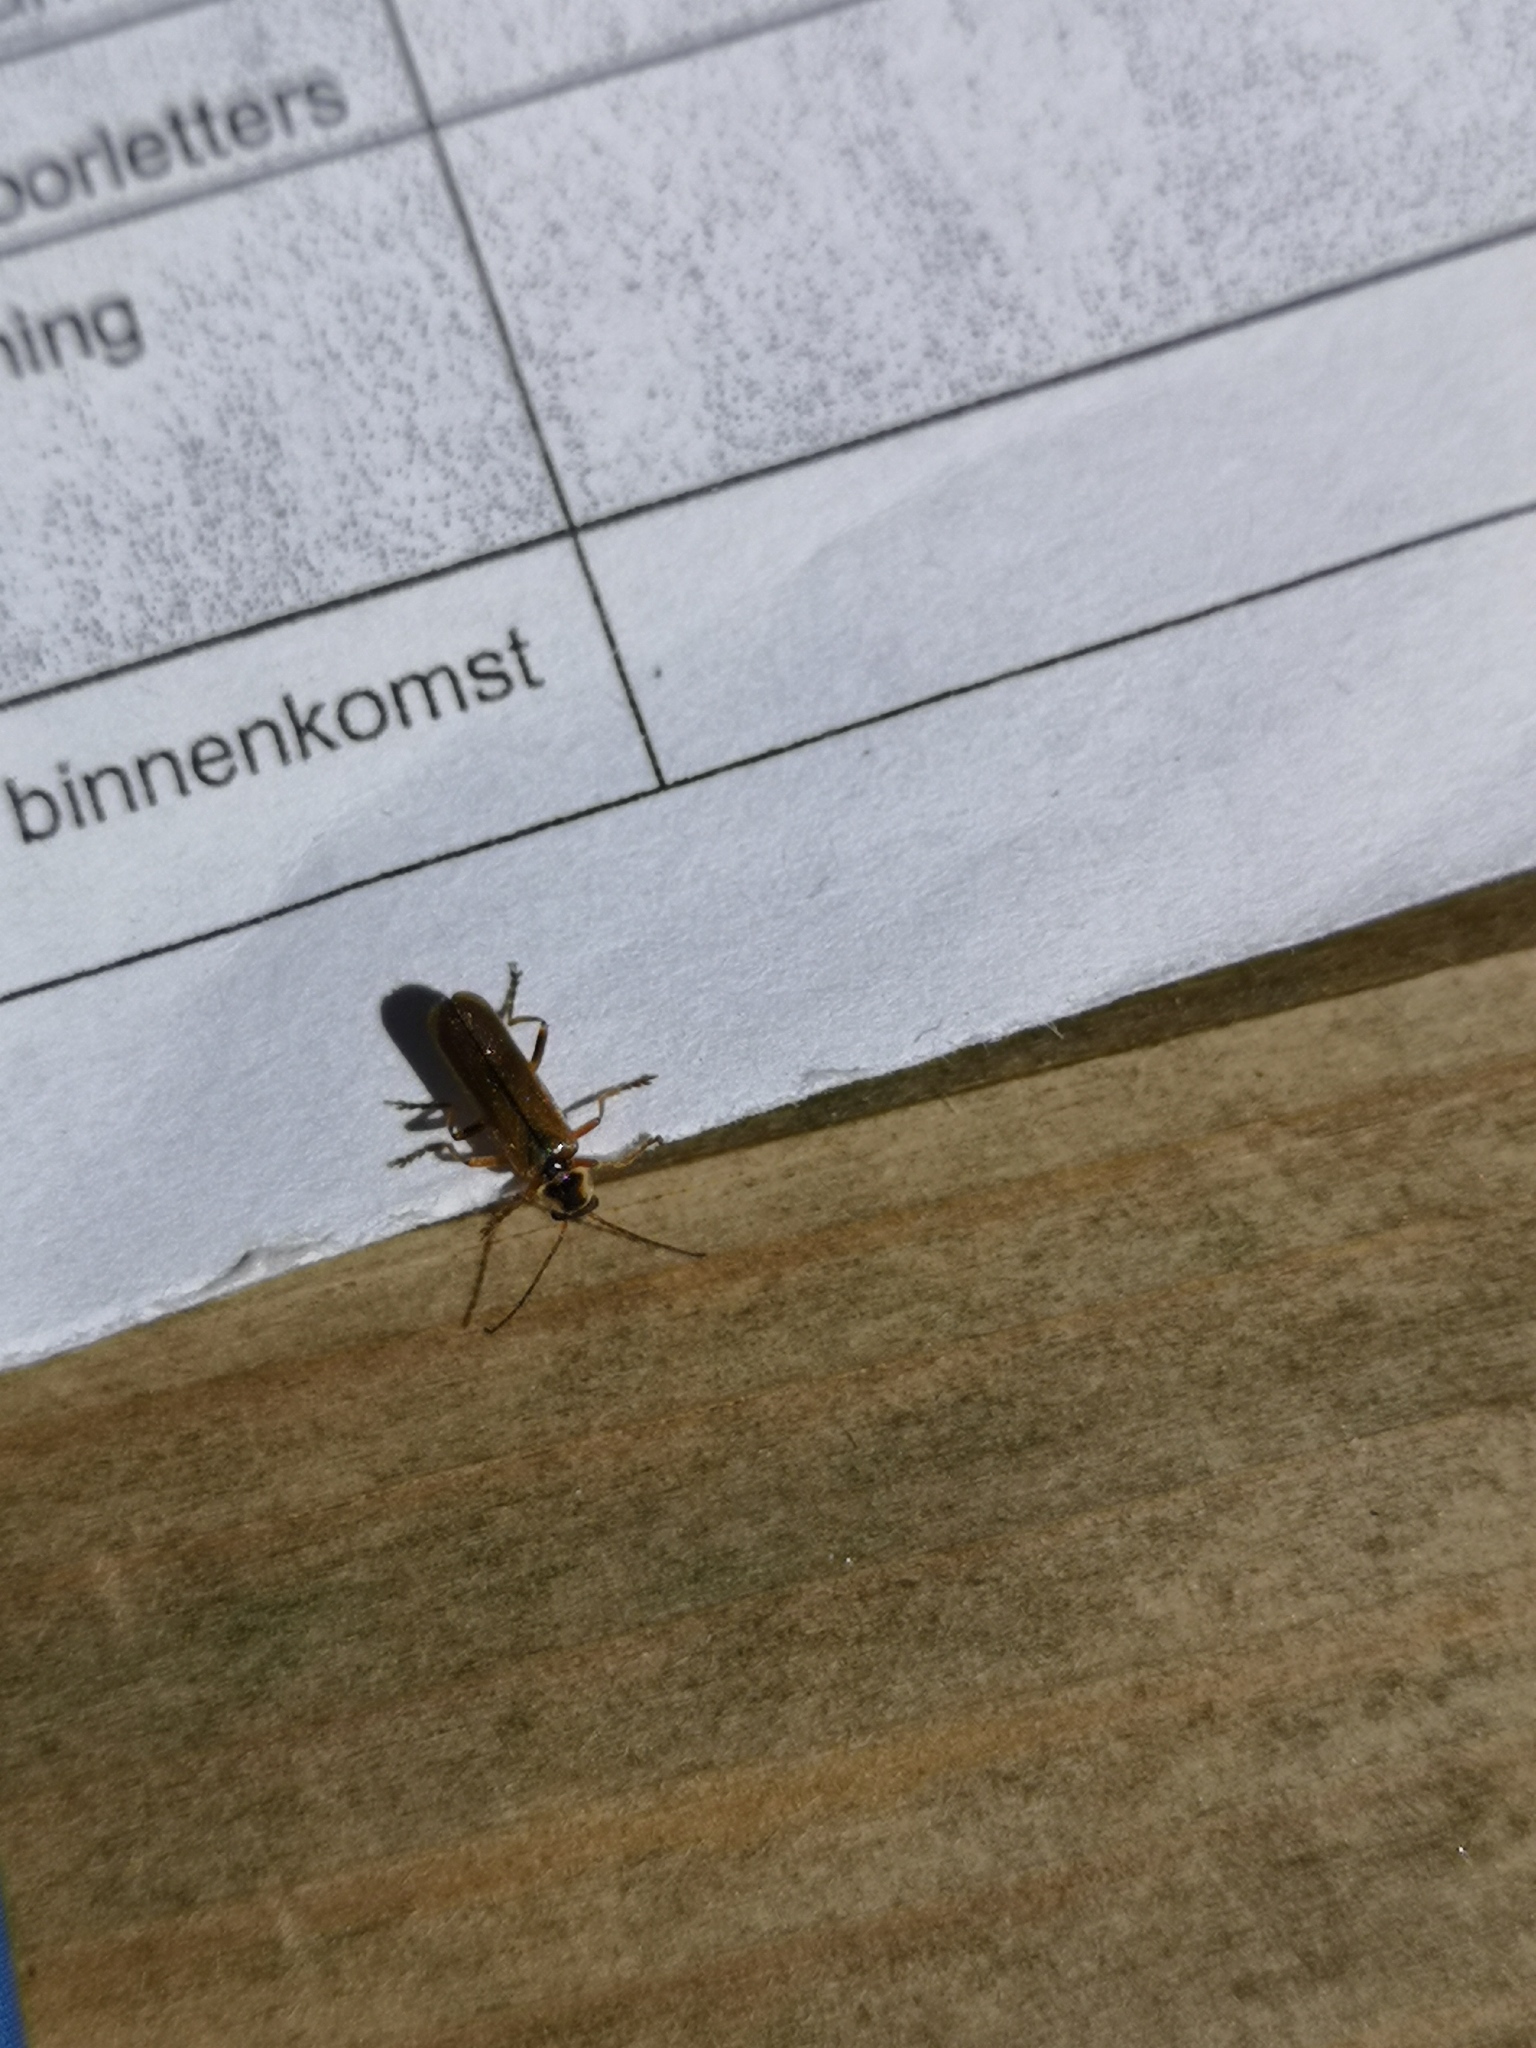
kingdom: Animalia
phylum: Arthropoda
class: Insecta
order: Coleoptera
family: Cantharidae
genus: Cantharis
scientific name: Cantharis decipiens
